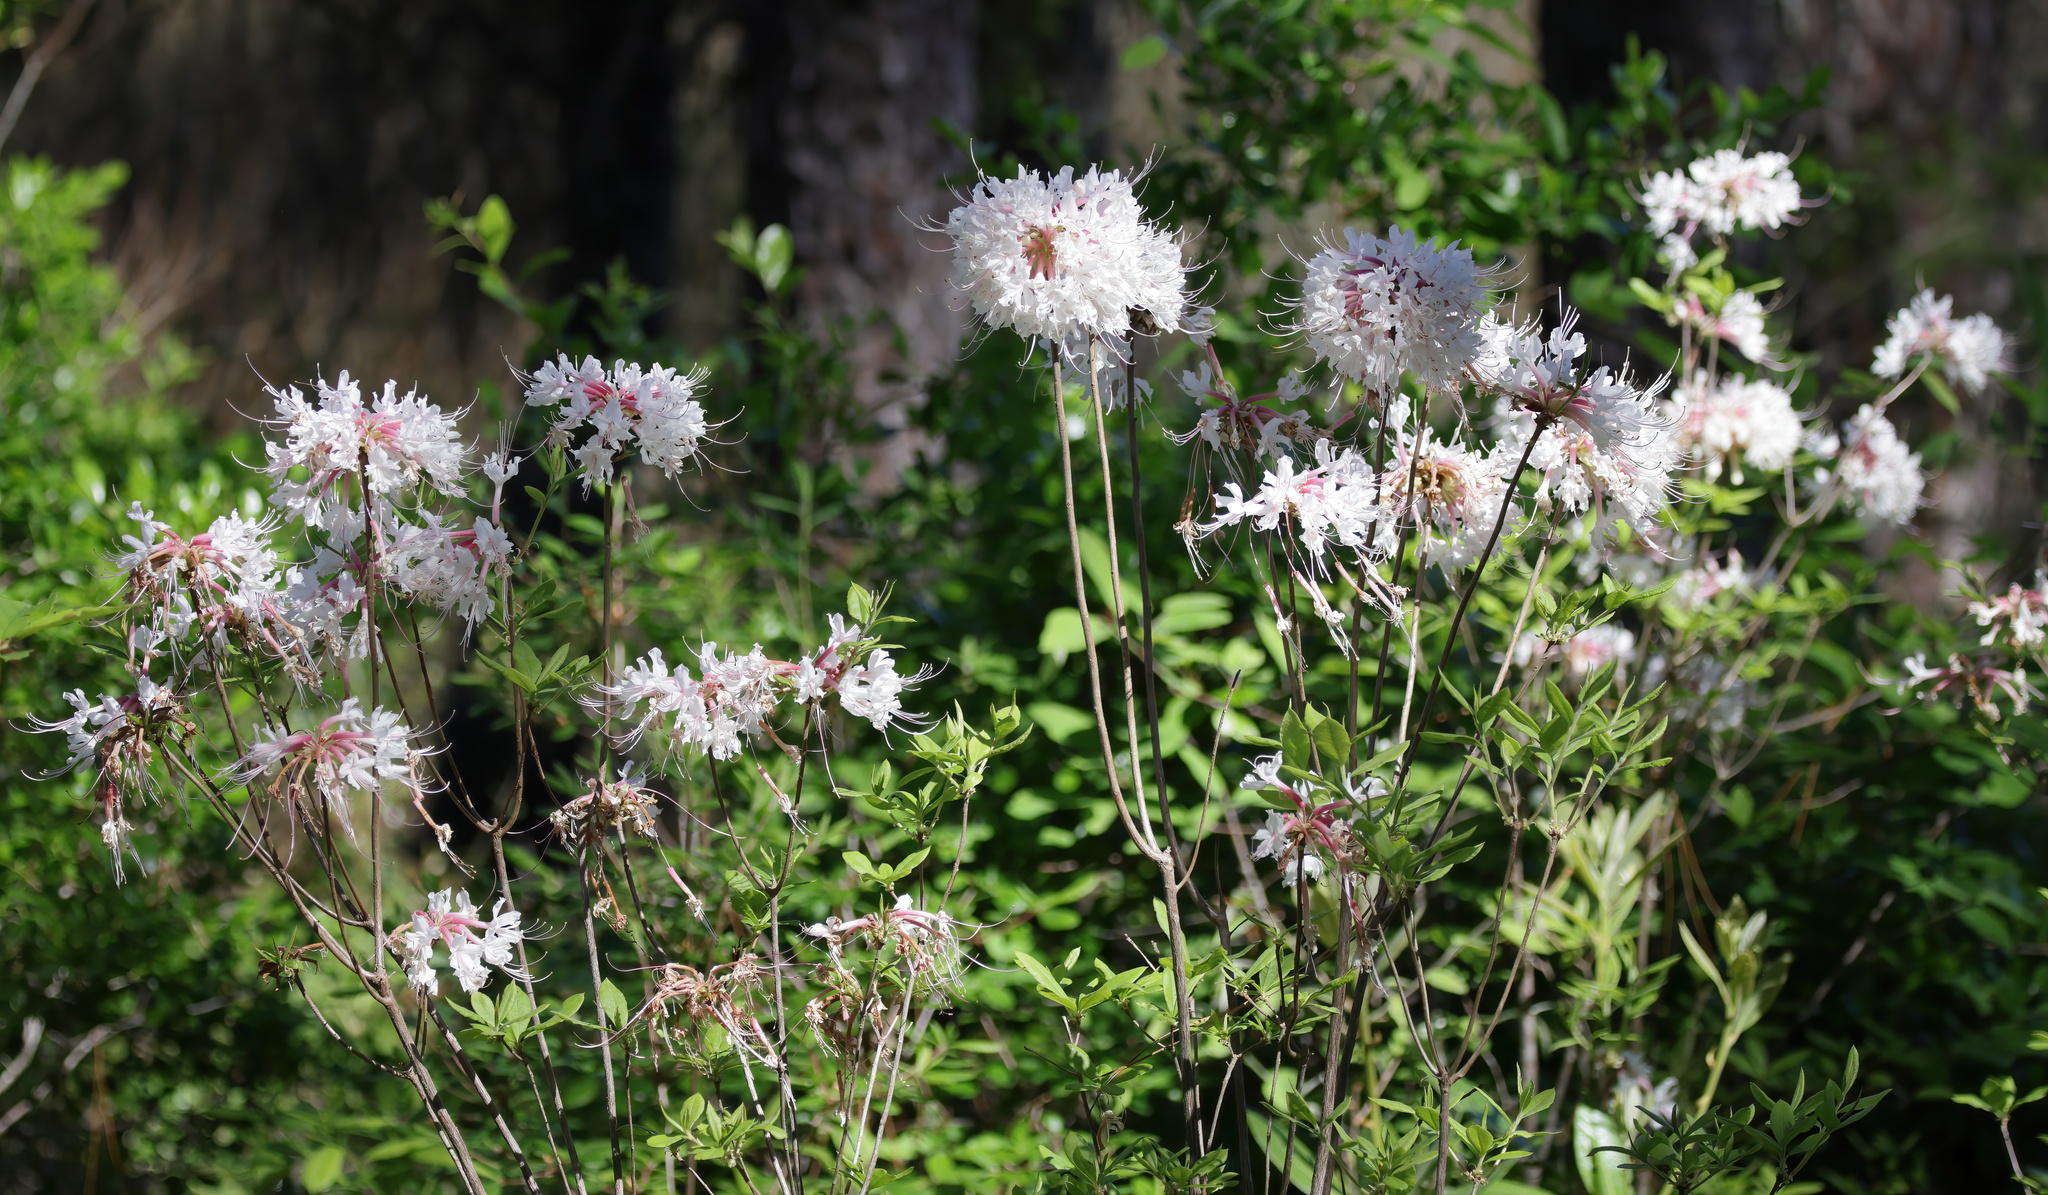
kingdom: Plantae
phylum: Tracheophyta
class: Magnoliopsida
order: Ericales
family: Ericaceae
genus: Rhododendron
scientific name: Rhododendron canescens
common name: Mountain azalea
